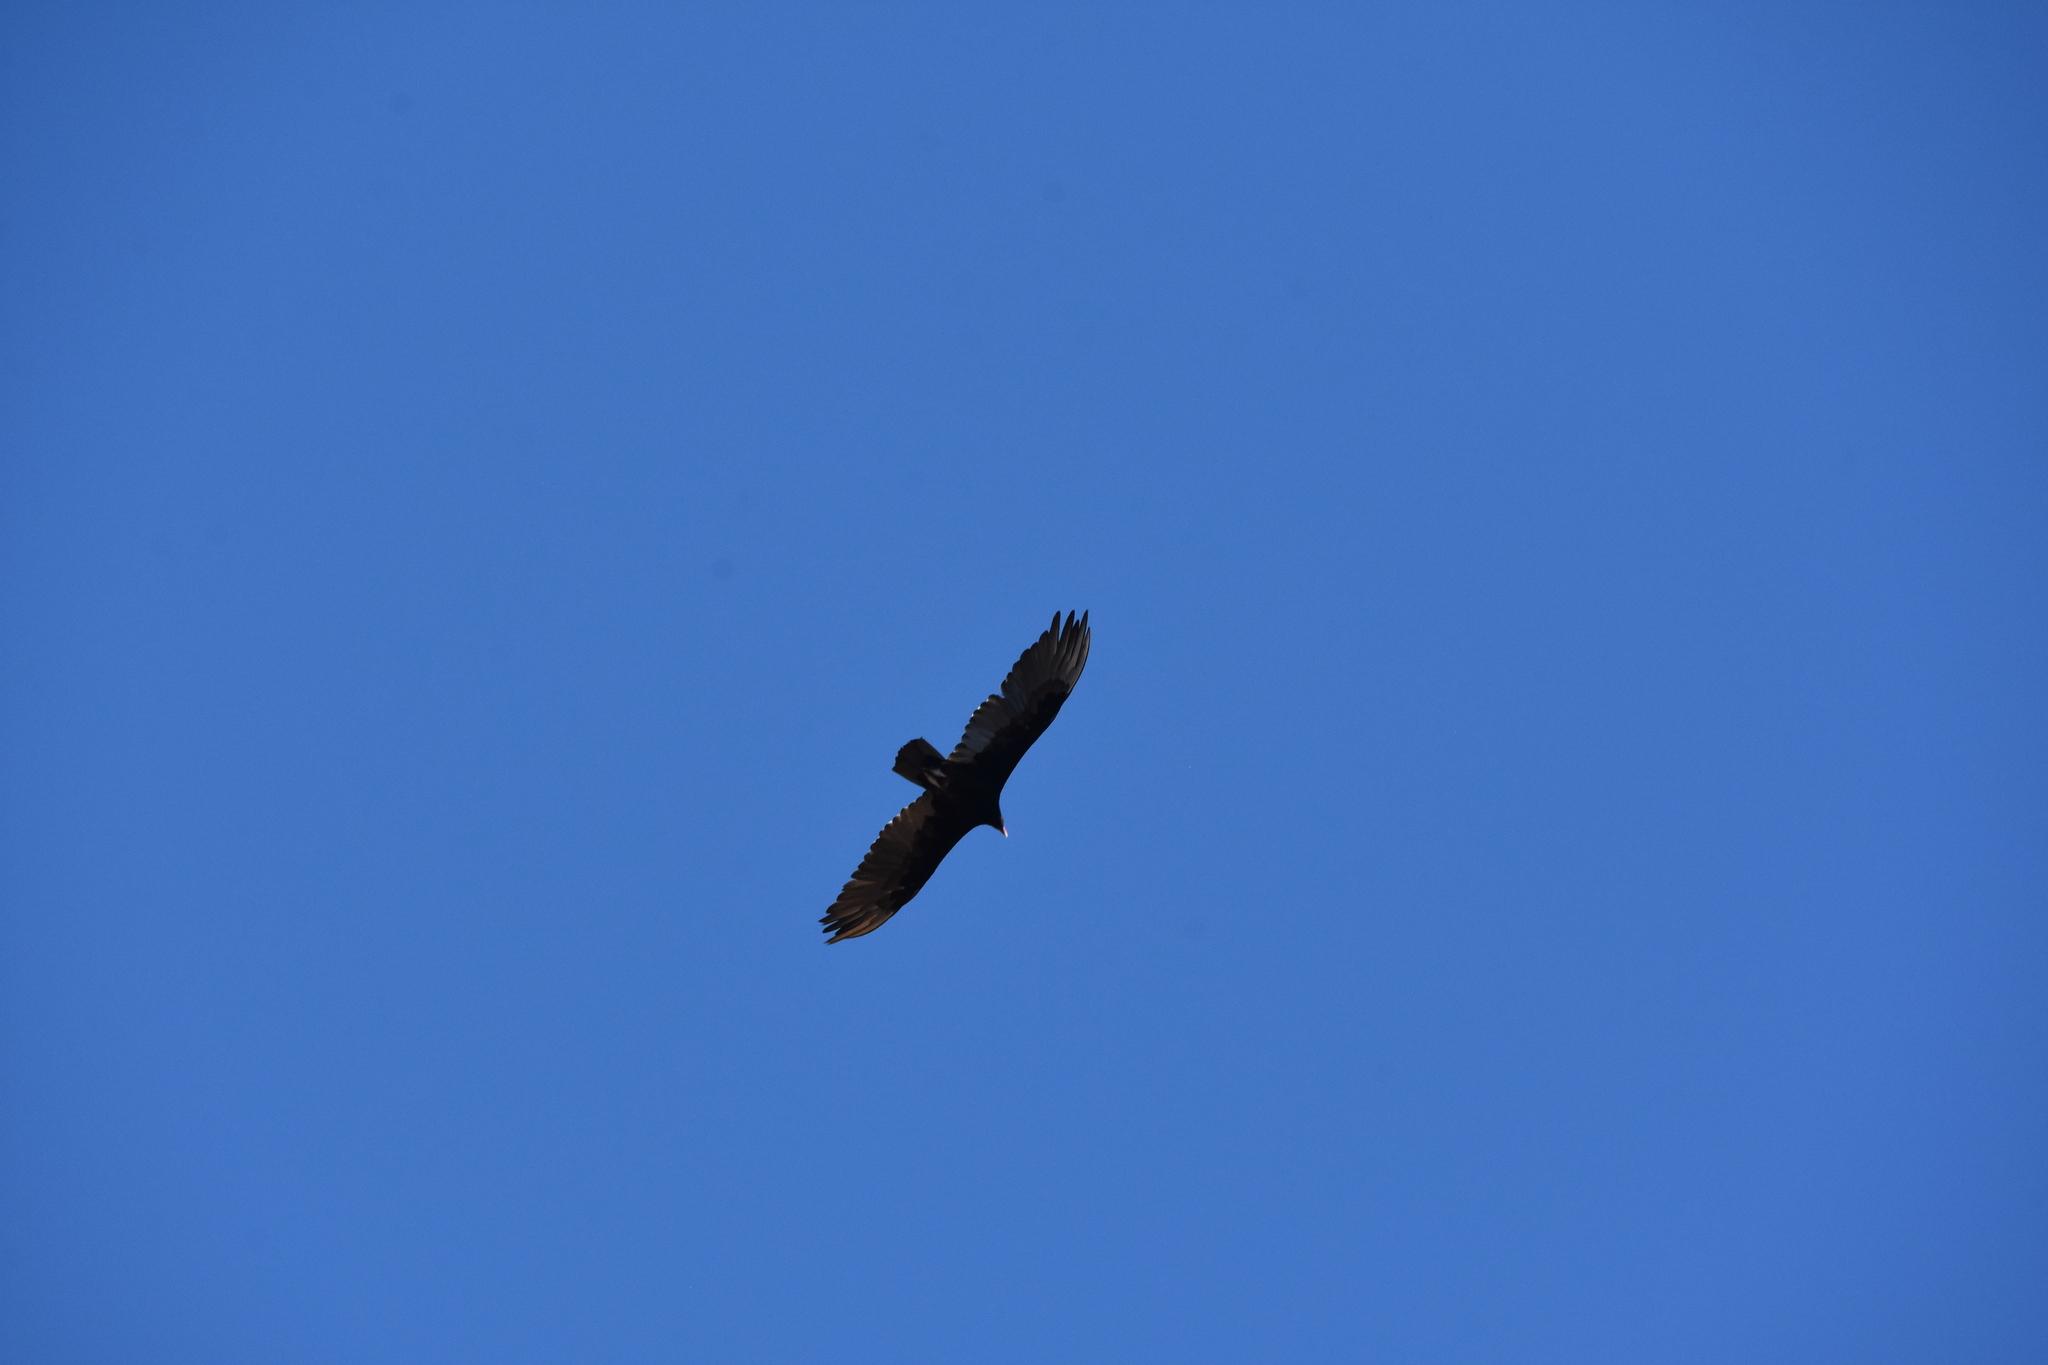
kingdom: Animalia
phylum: Chordata
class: Aves
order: Accipitriformes
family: Cathartidae
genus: Cathartes
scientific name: Cathartes aura
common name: Turkey vulture
